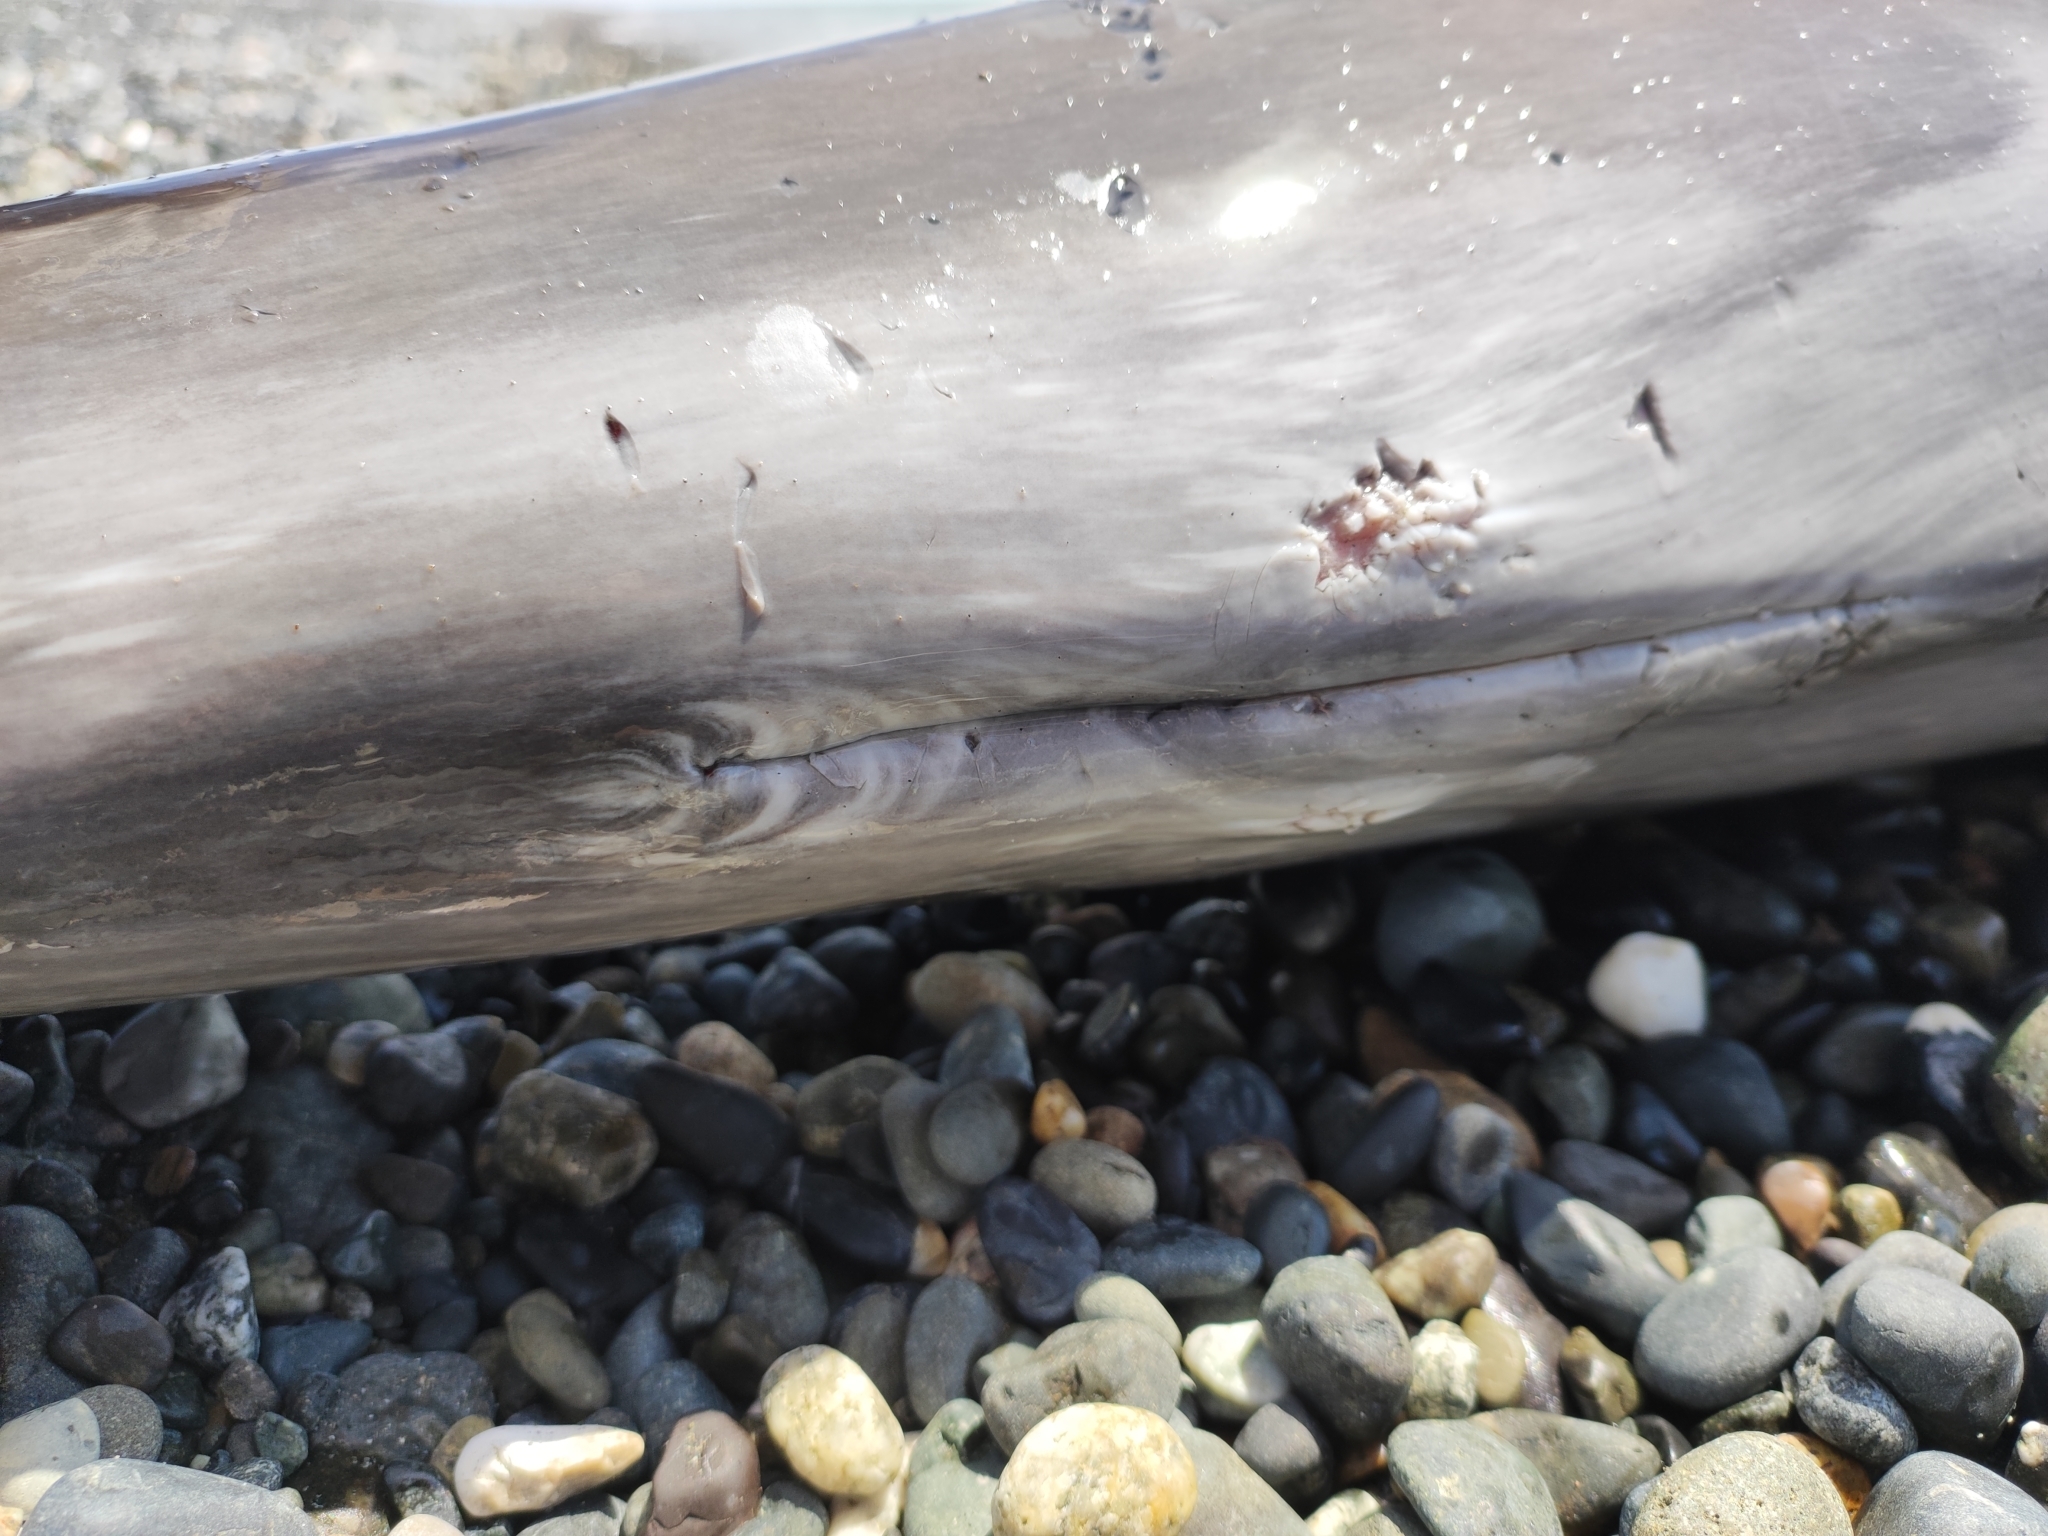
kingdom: Animalia
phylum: Chordata
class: Mammalia
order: Cetacea
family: Phocoenidae
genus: Phocoena
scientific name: Phocoena phocoena
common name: Harbor porpoise
